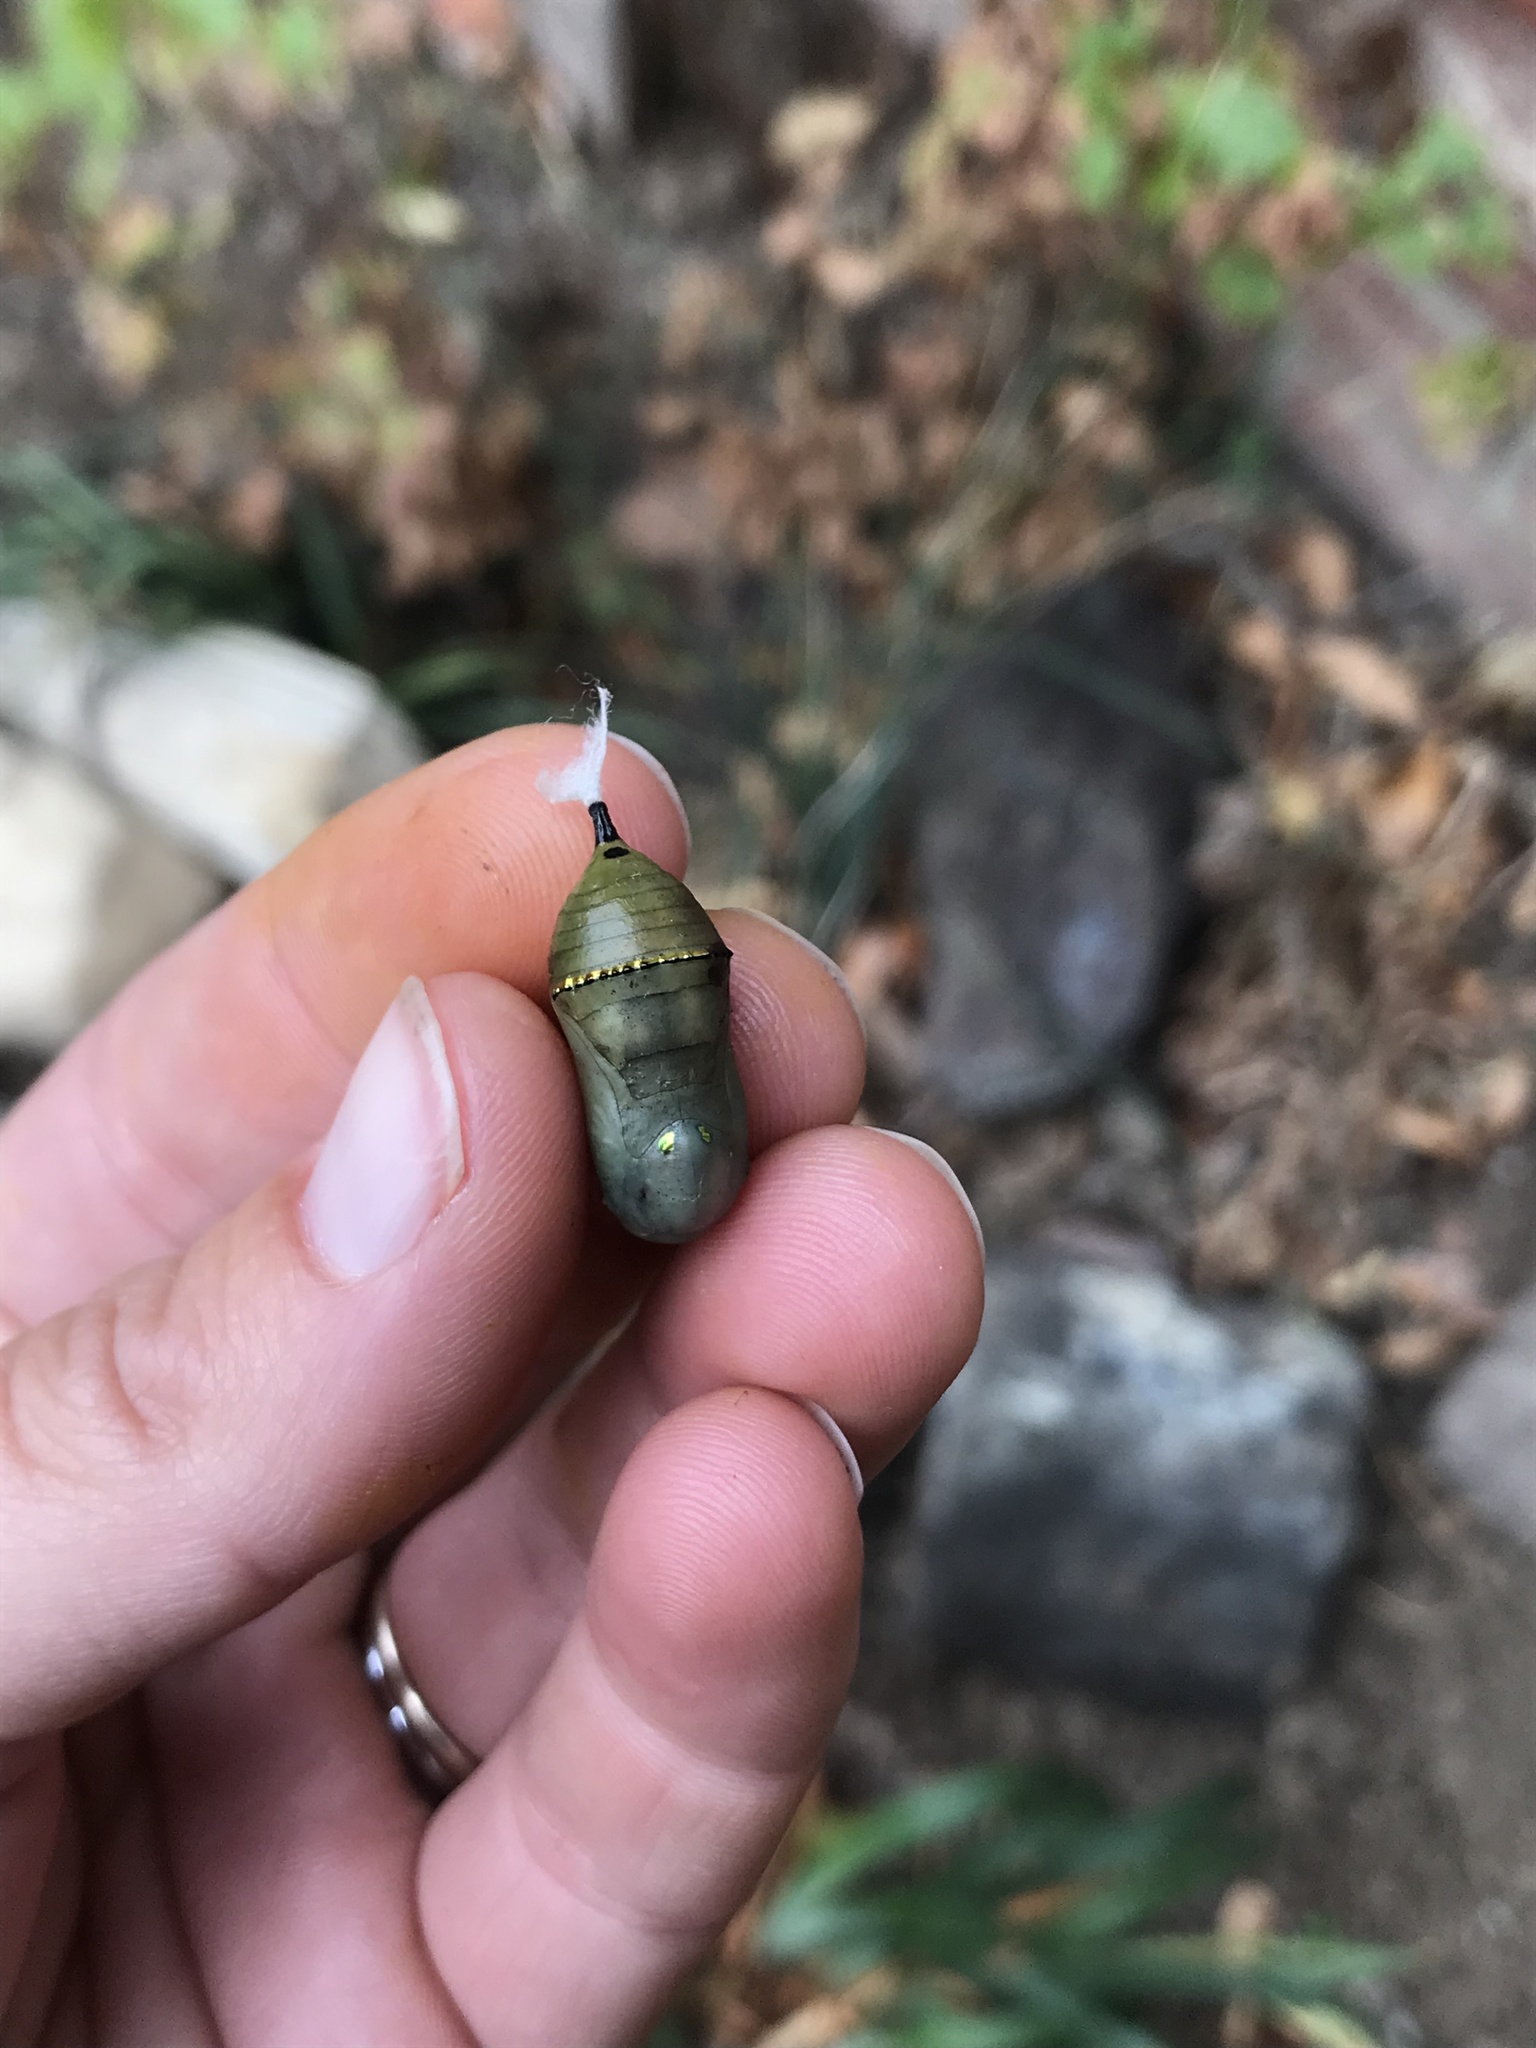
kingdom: Animalia
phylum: Arthropoda
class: Insecta
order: Lepidoptera
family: Nymphalidae
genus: Danaus
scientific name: Danaus plexippus
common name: Monarch
